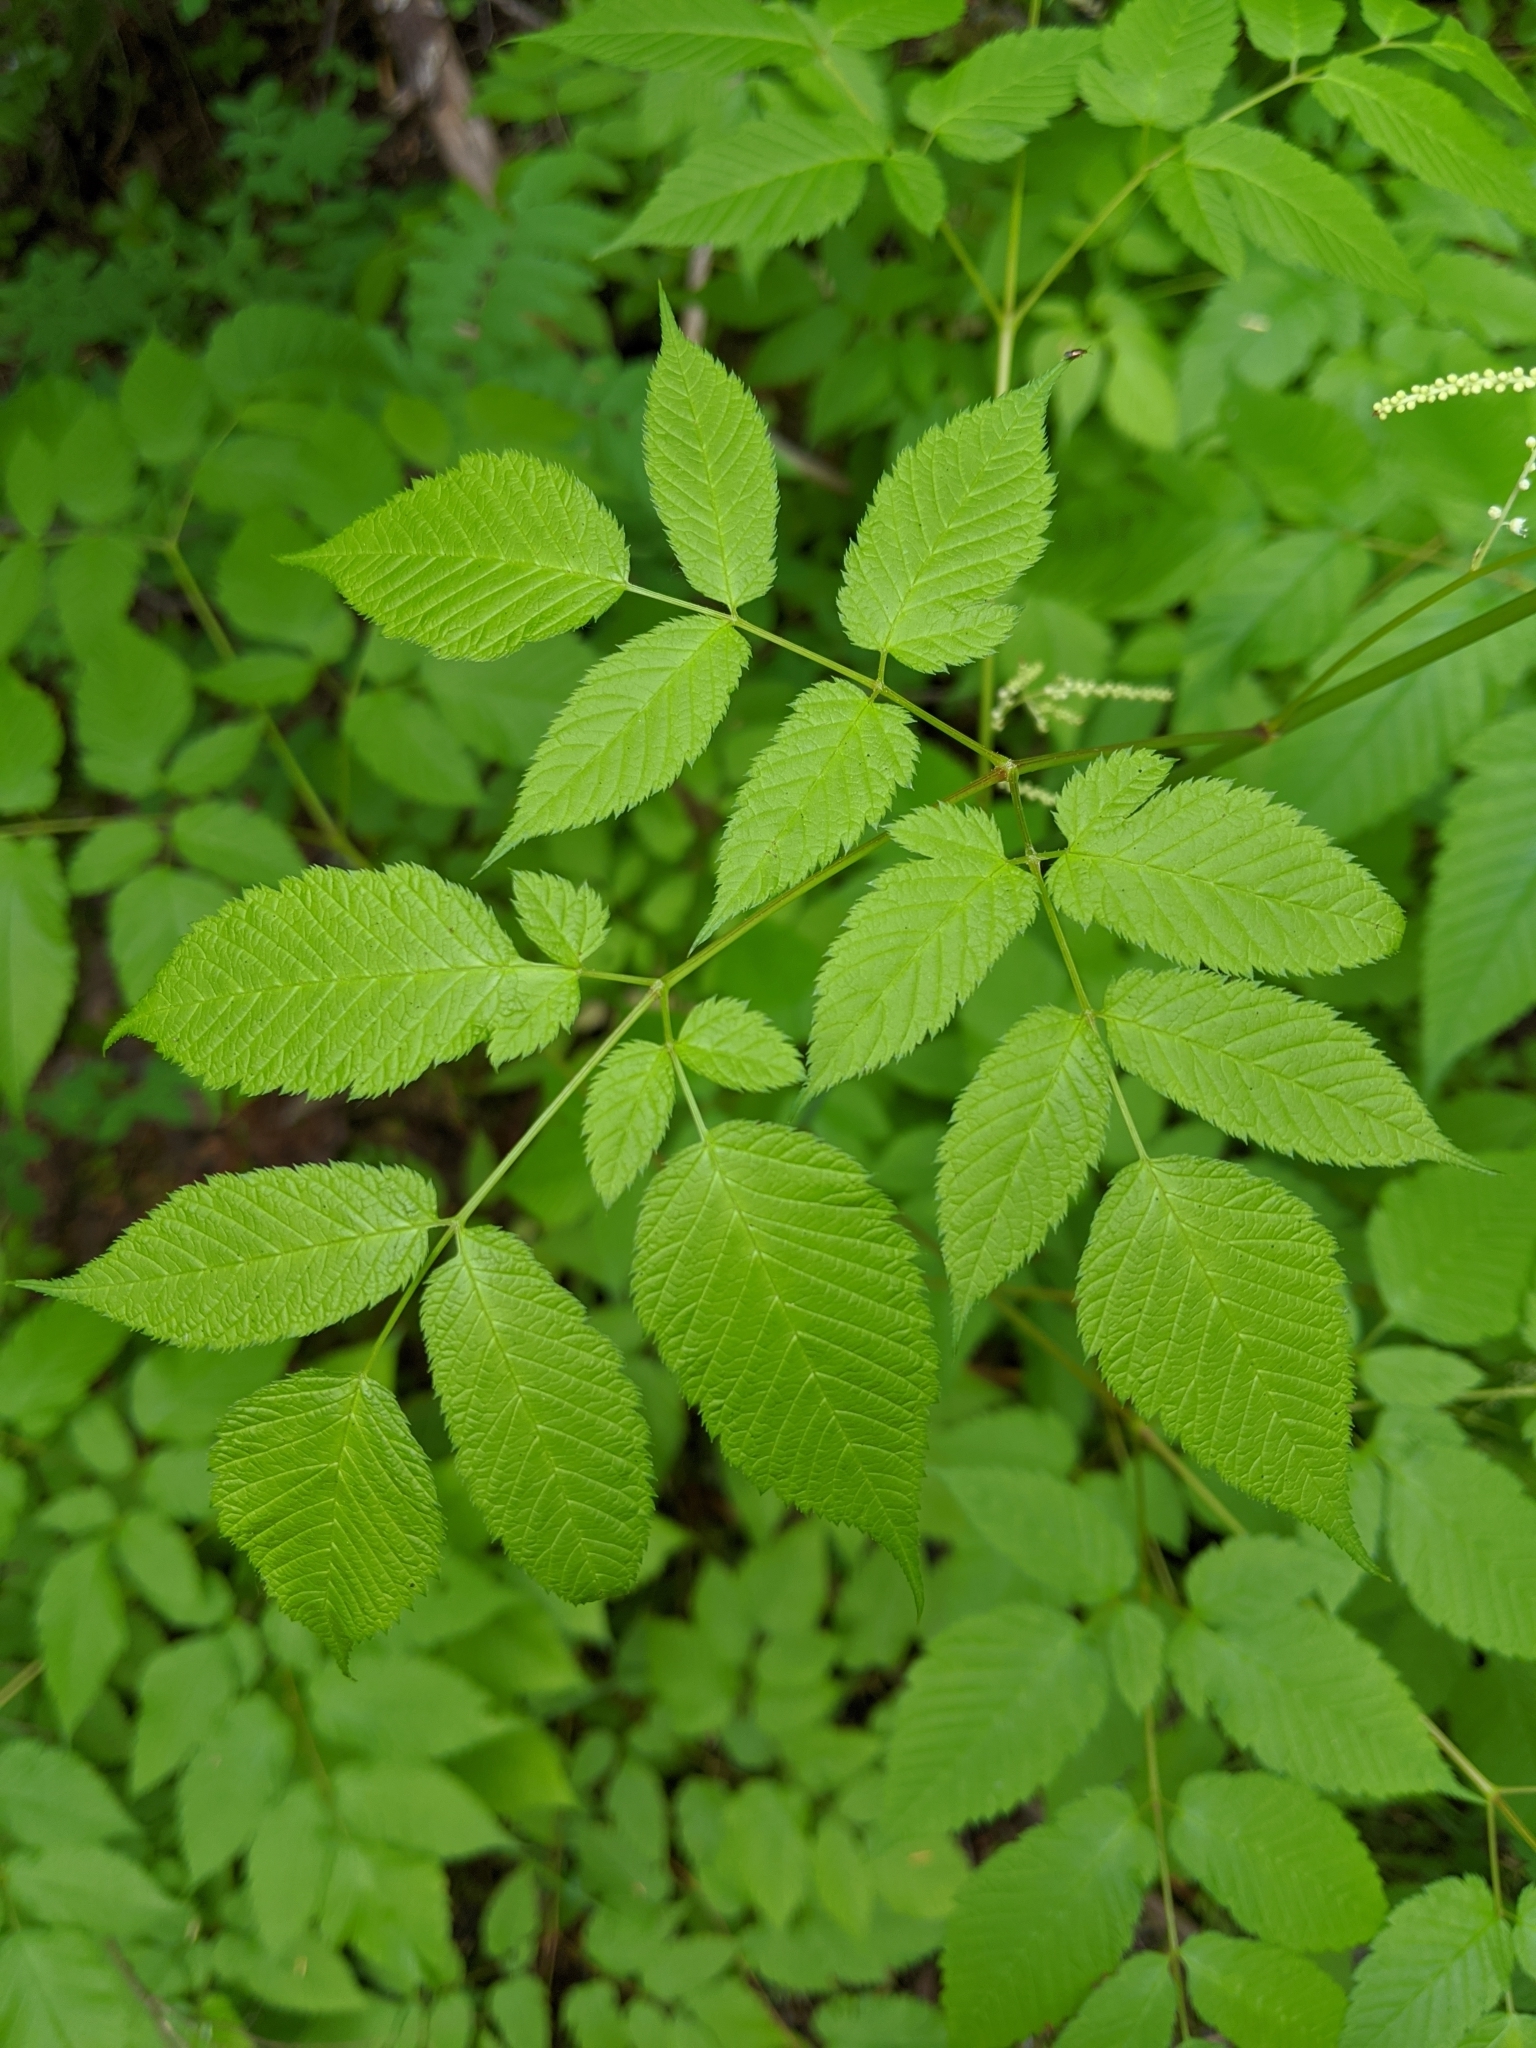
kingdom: Plantae
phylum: Tracheophyta
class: Magnoliopsida
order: Rosales
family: Rosaceae
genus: Aruncus
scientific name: Aruncus dioicus
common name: Buck's-beard
